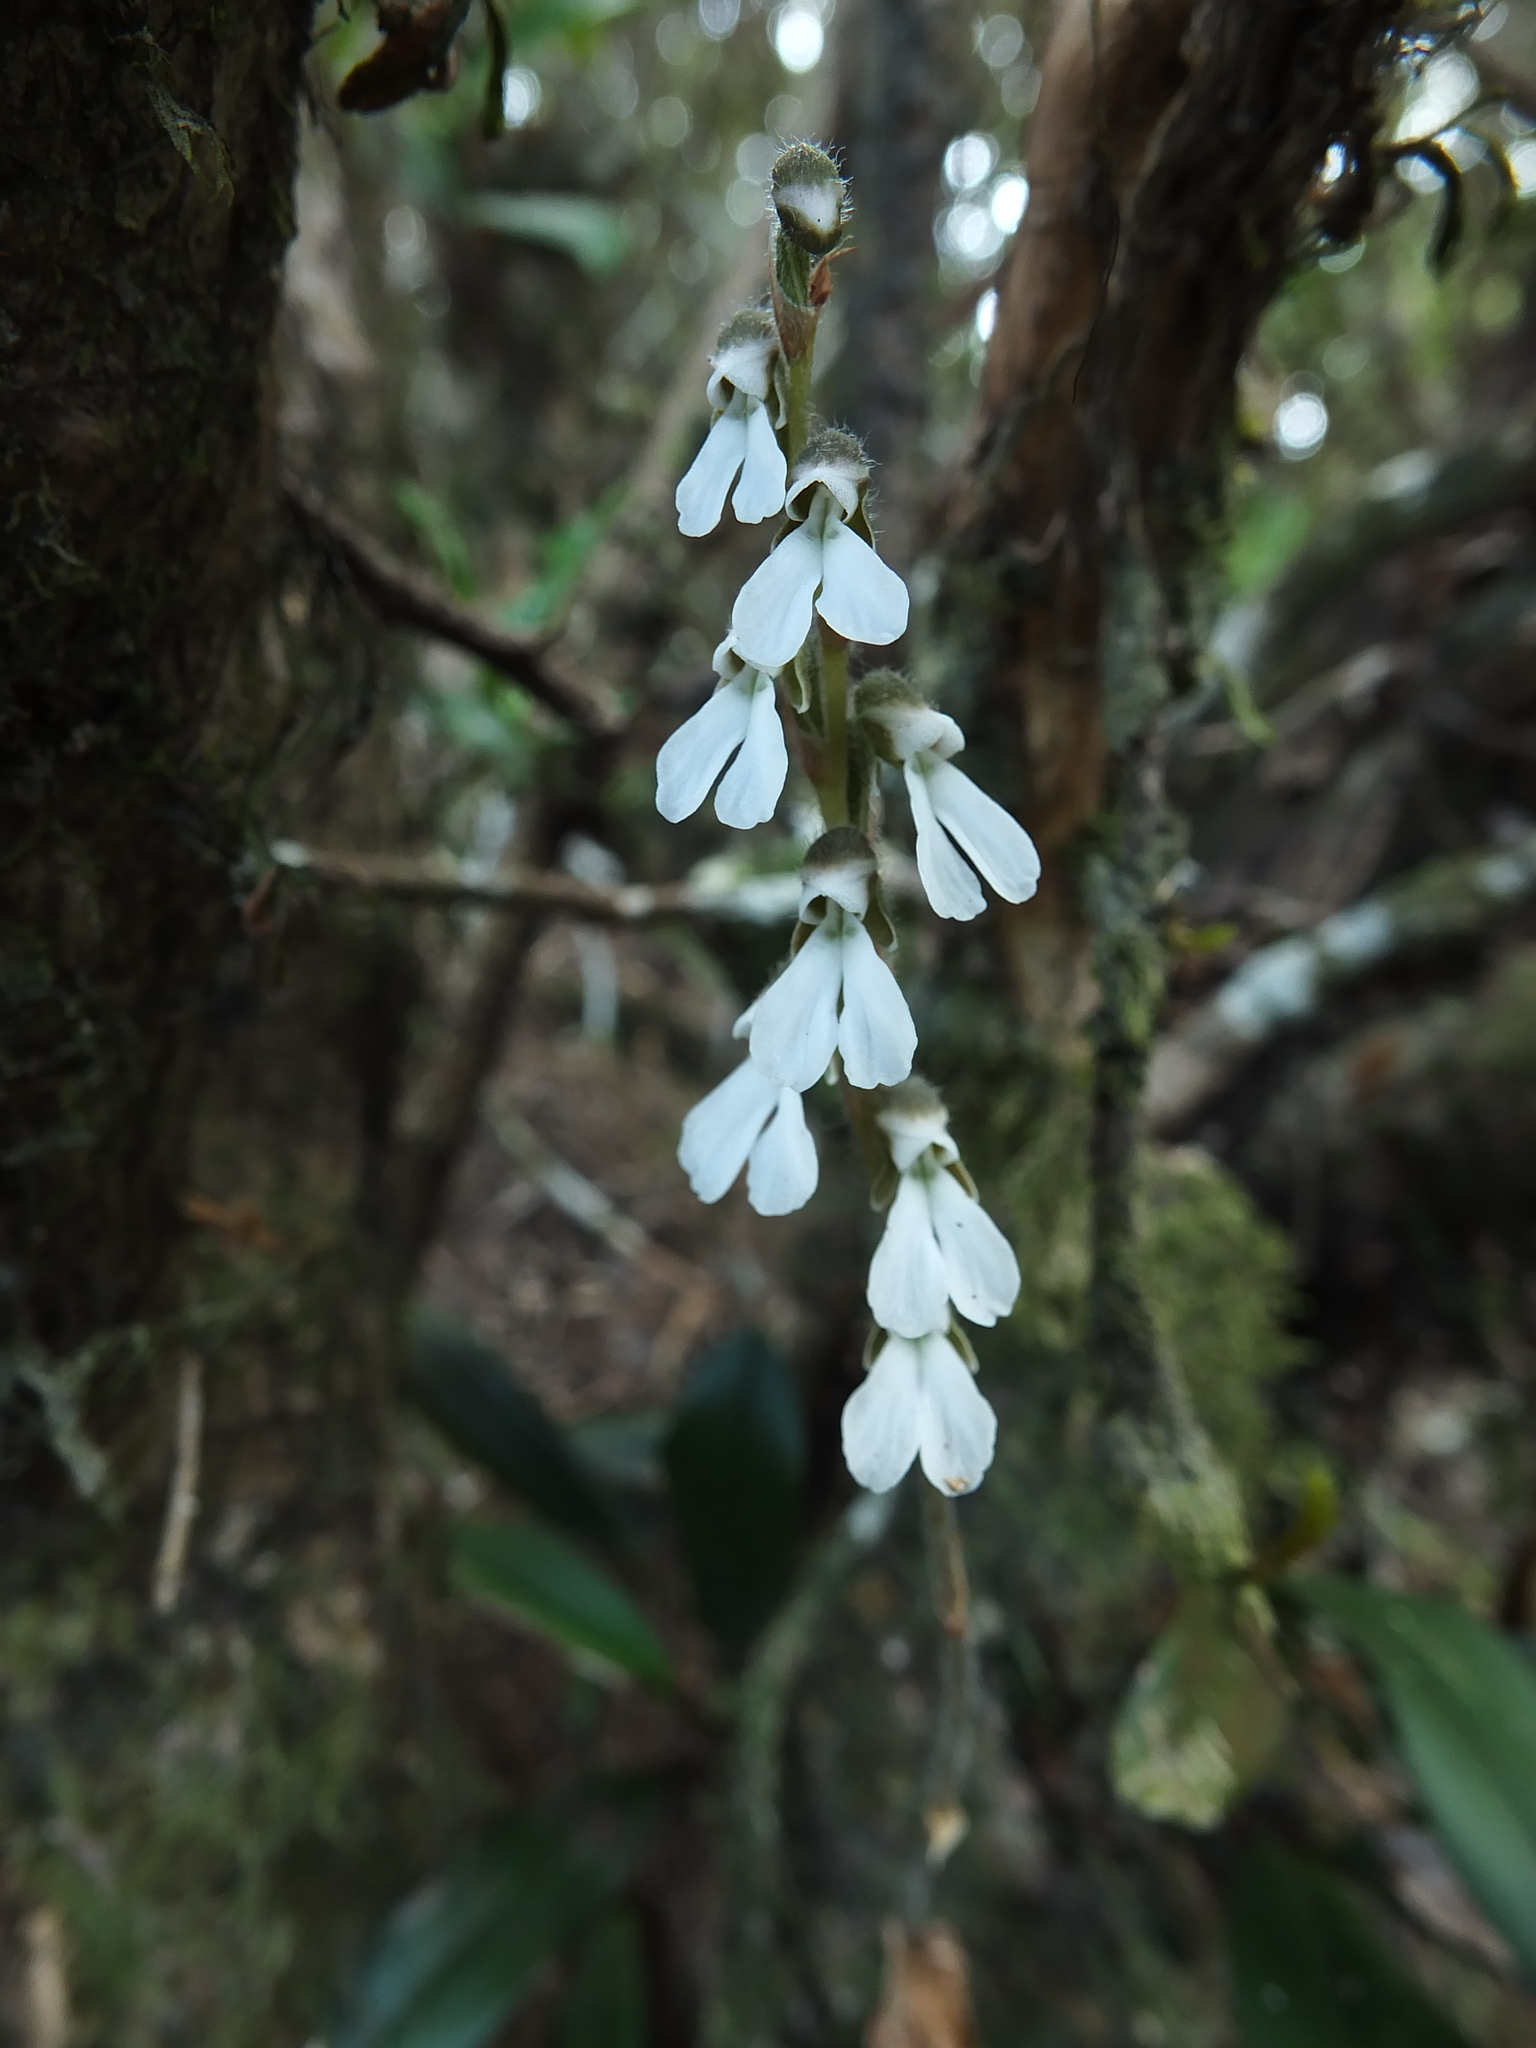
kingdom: Plantae
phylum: Tracheophyta
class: Liliopsida
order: Asparagales
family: Orchidaceae
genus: Zeuxine
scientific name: Zeuxine longilabris
